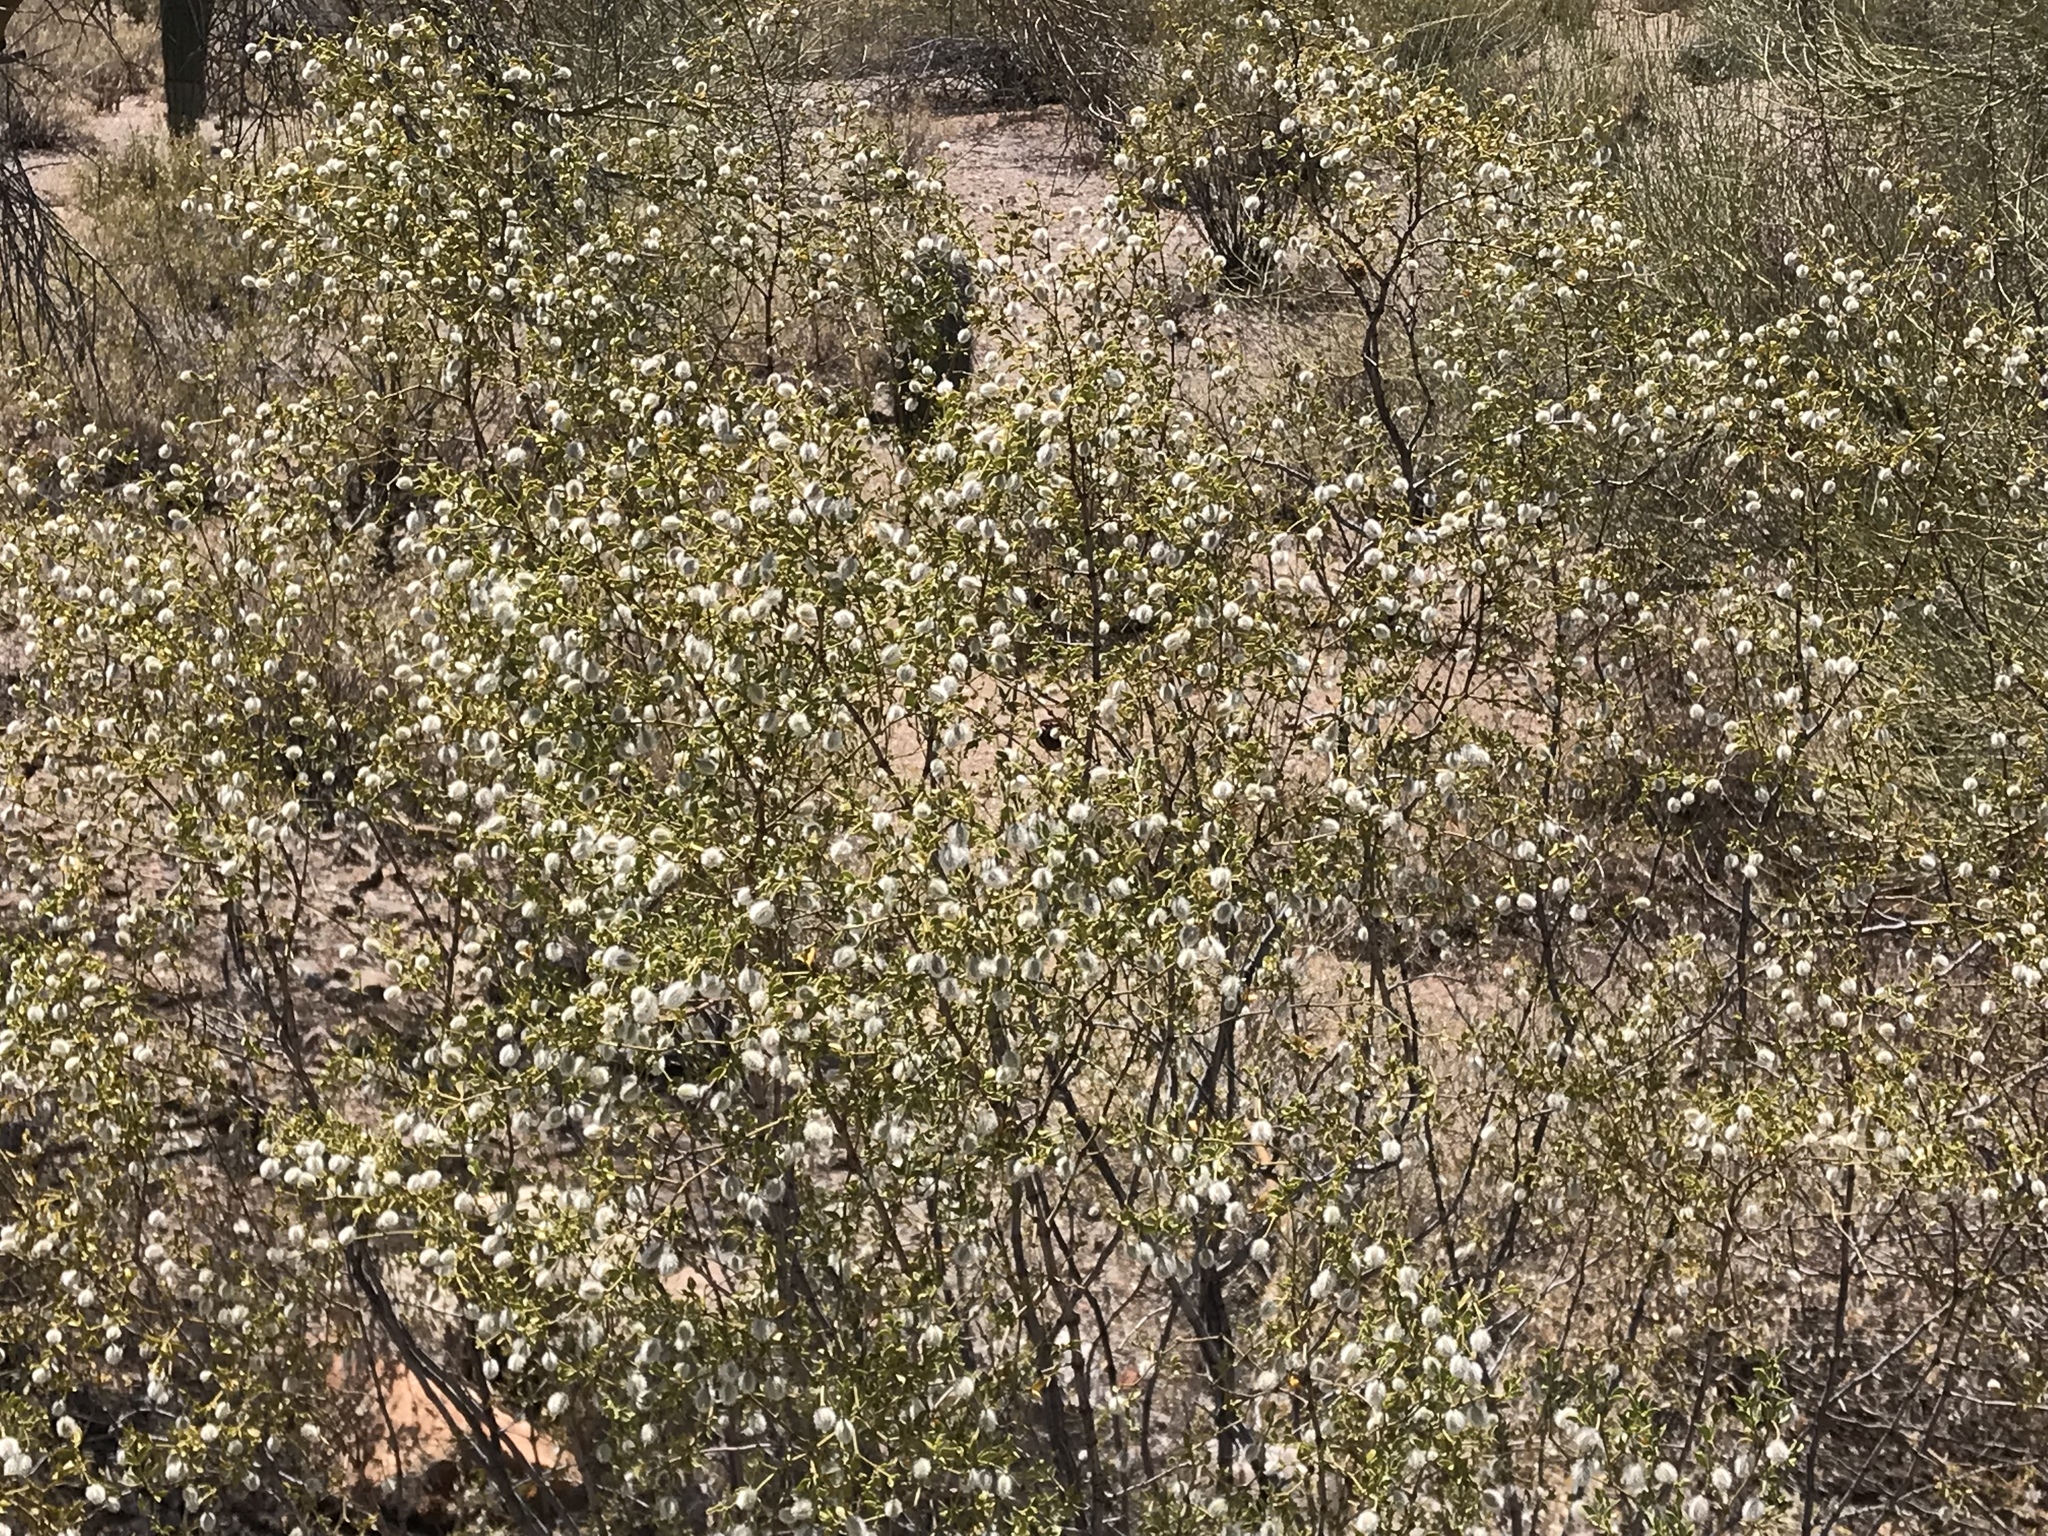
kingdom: Plantae
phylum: Tracheophyta
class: Magnoliopsida
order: Zygophyllales
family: Zygophyllaceae
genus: Larrea
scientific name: Larrea tridentata
